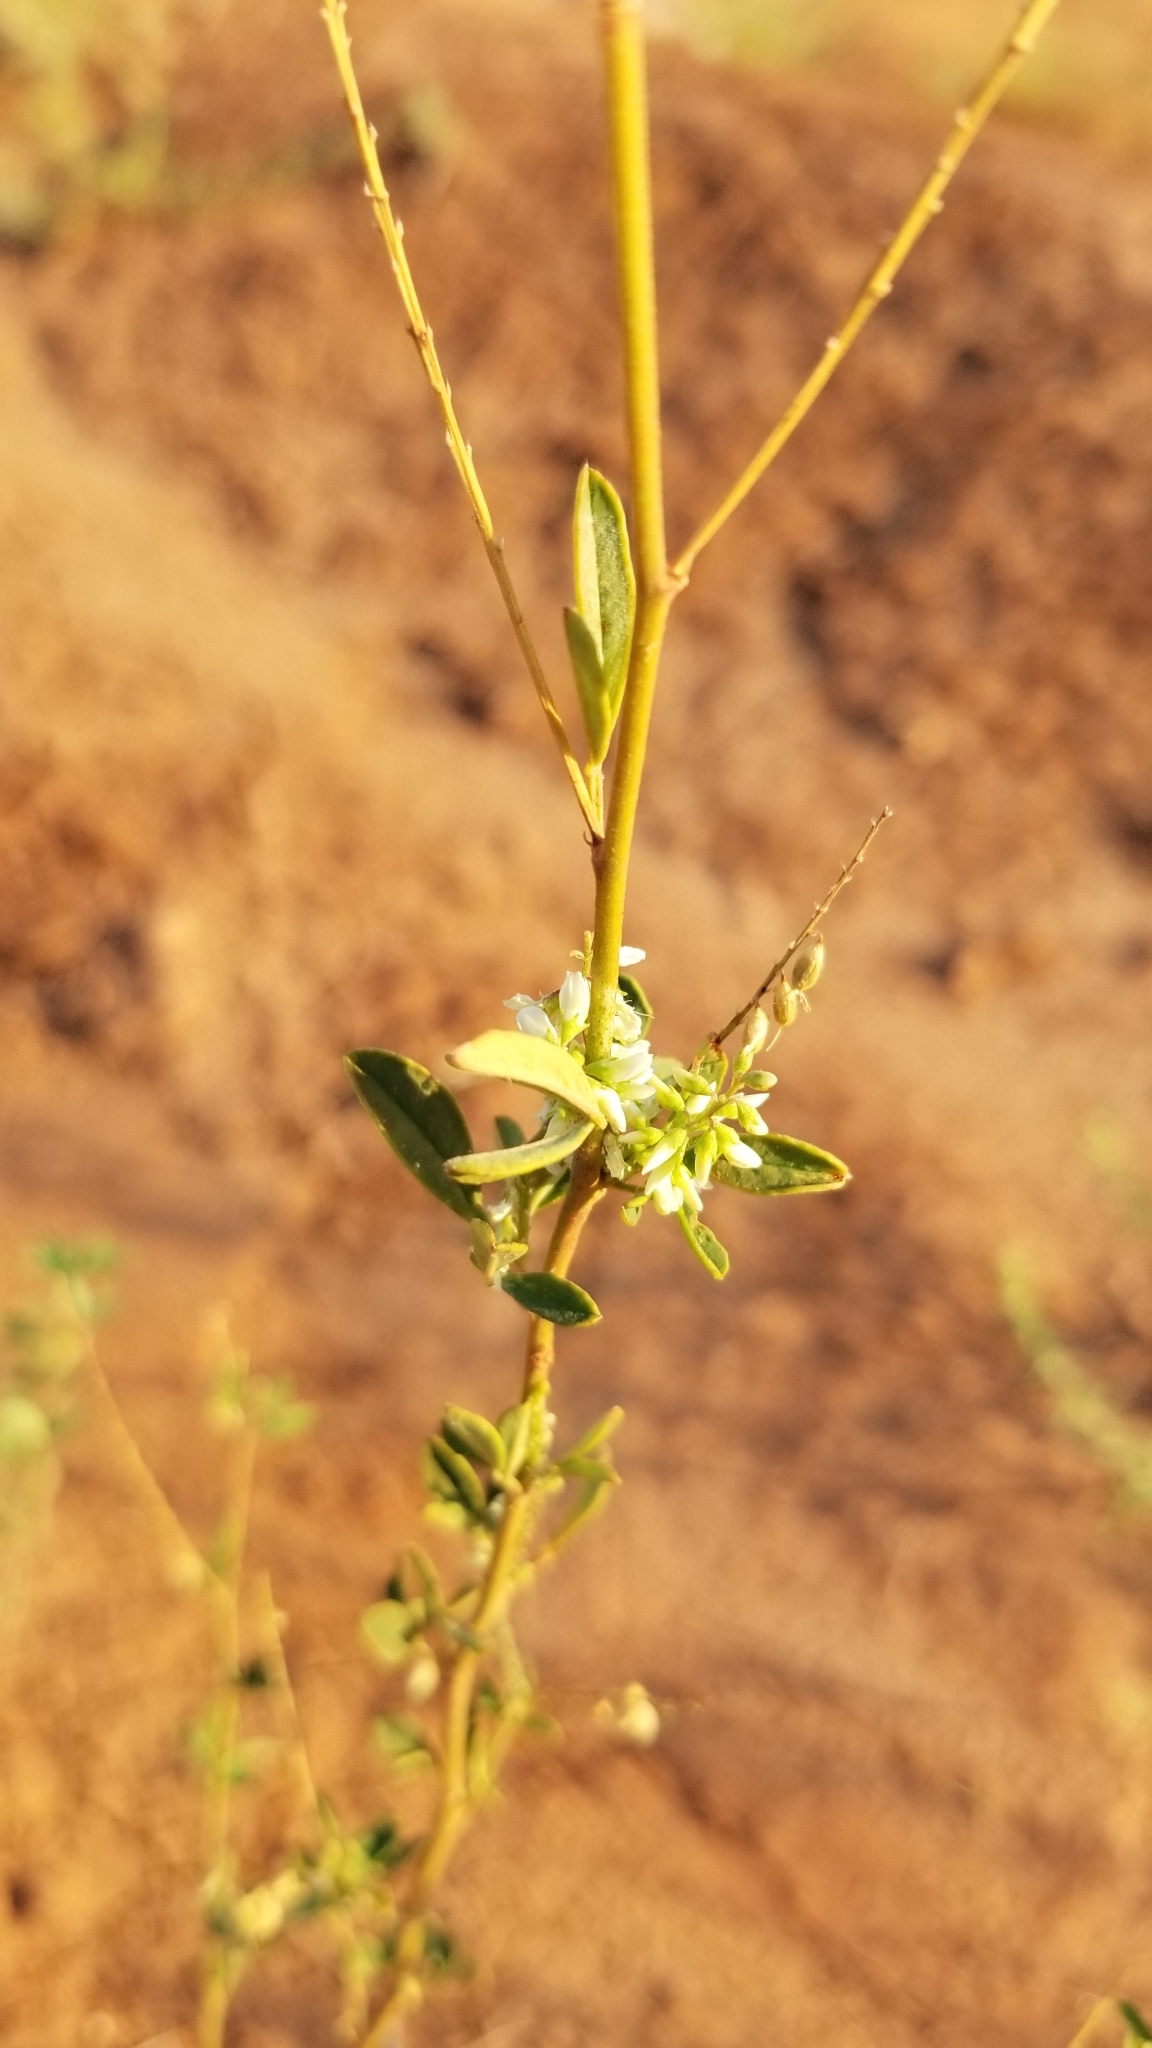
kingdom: Plantae
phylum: Tracheophyta
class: Magnoliopsida
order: Fabales
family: Fabaceae
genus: Melilotus
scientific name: Melilotus albus
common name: White melilot
